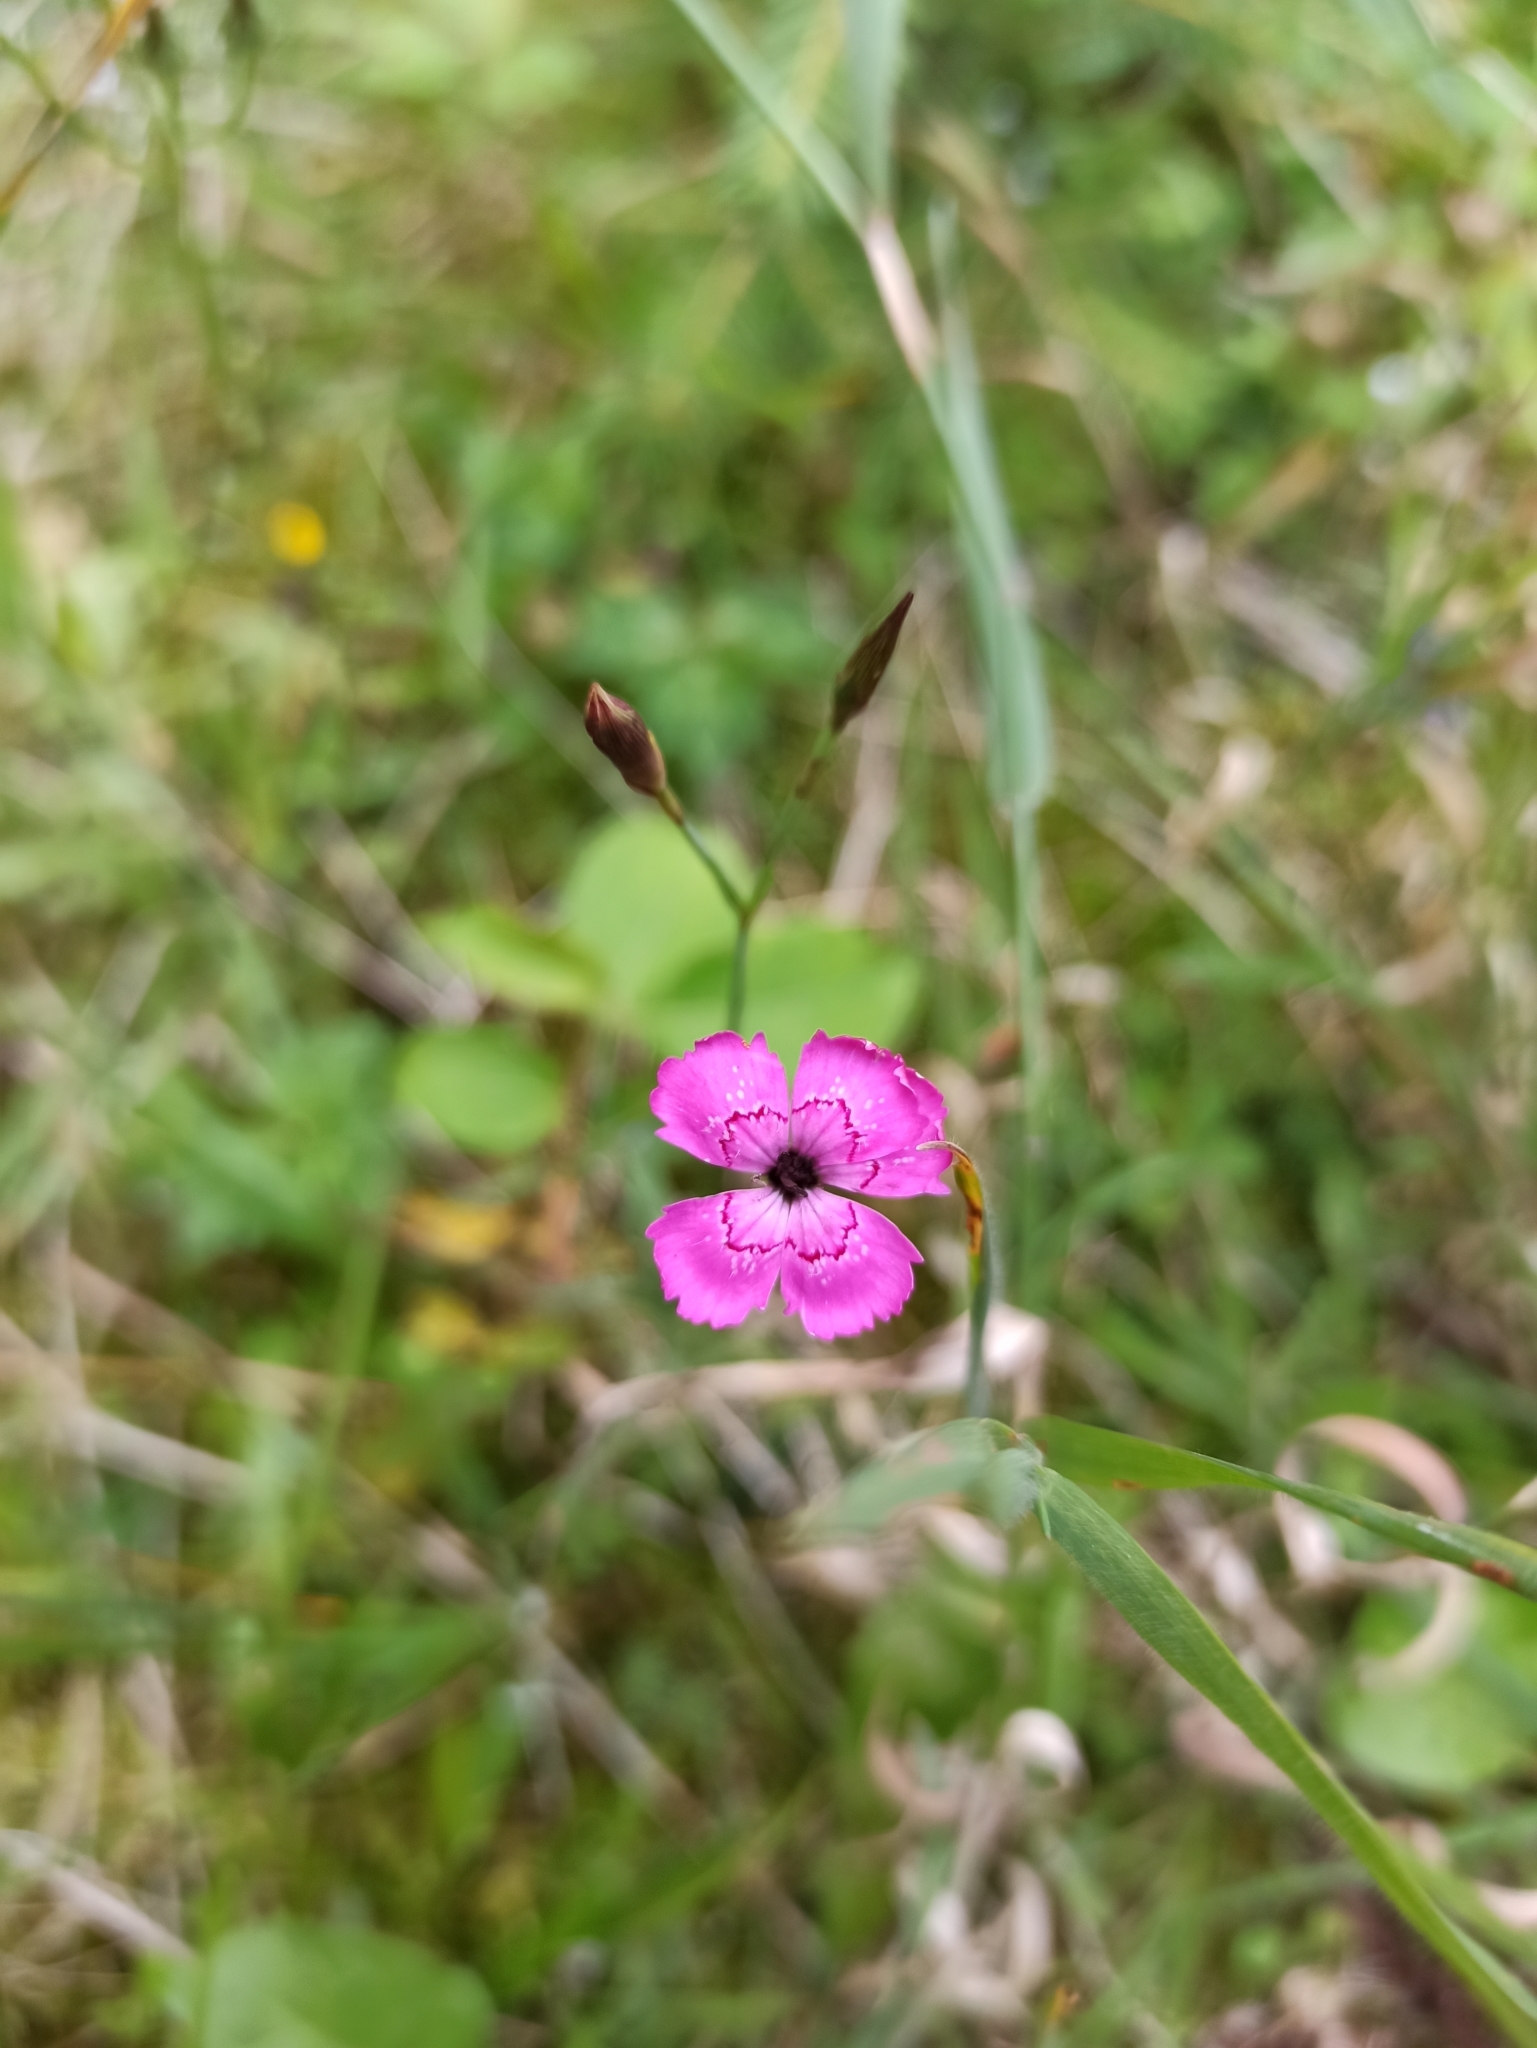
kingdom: Plantae
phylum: Tracheophyta
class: Magnoliopsida
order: Caryophyllales
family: Caryophyllaceae
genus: Dianthus
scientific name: Dianthus deltoides
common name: Maiden pink
